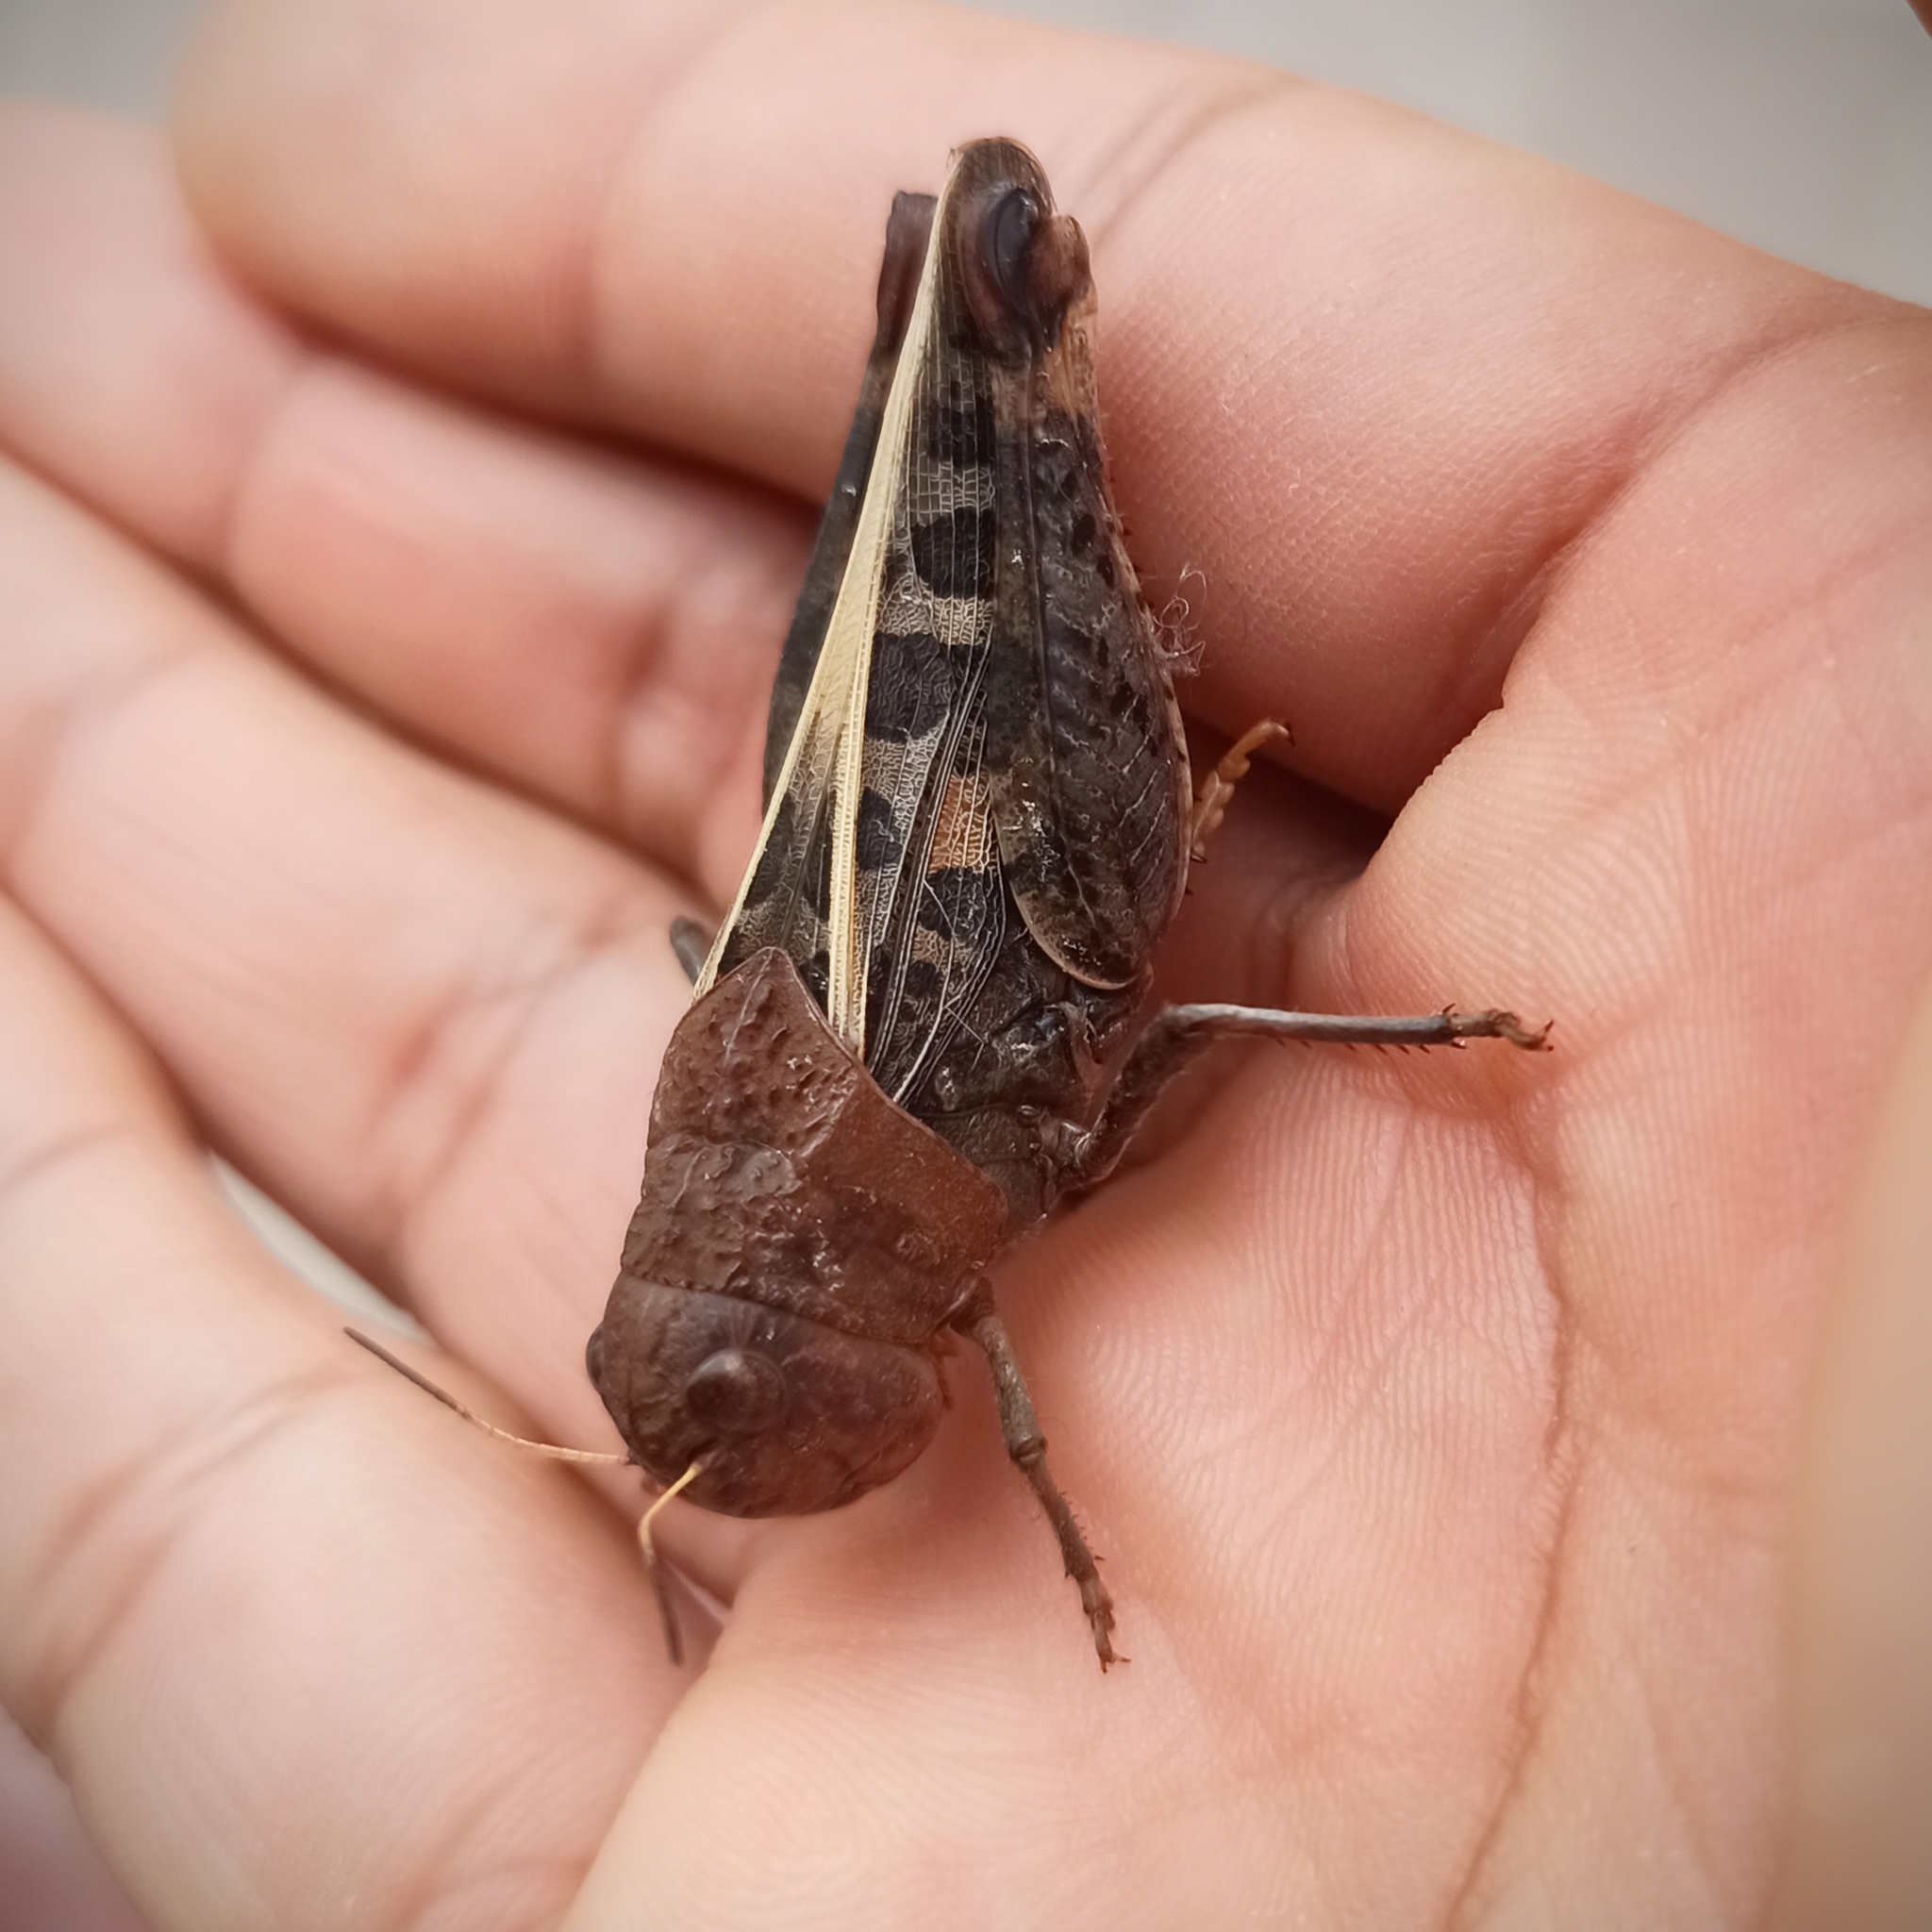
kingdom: Animalia
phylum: Arthropoda
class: Insecta
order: Orthoptera
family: Acrididae
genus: Hippiscus
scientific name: Hippiscus ocelote
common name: Wrinkled grasshopper
